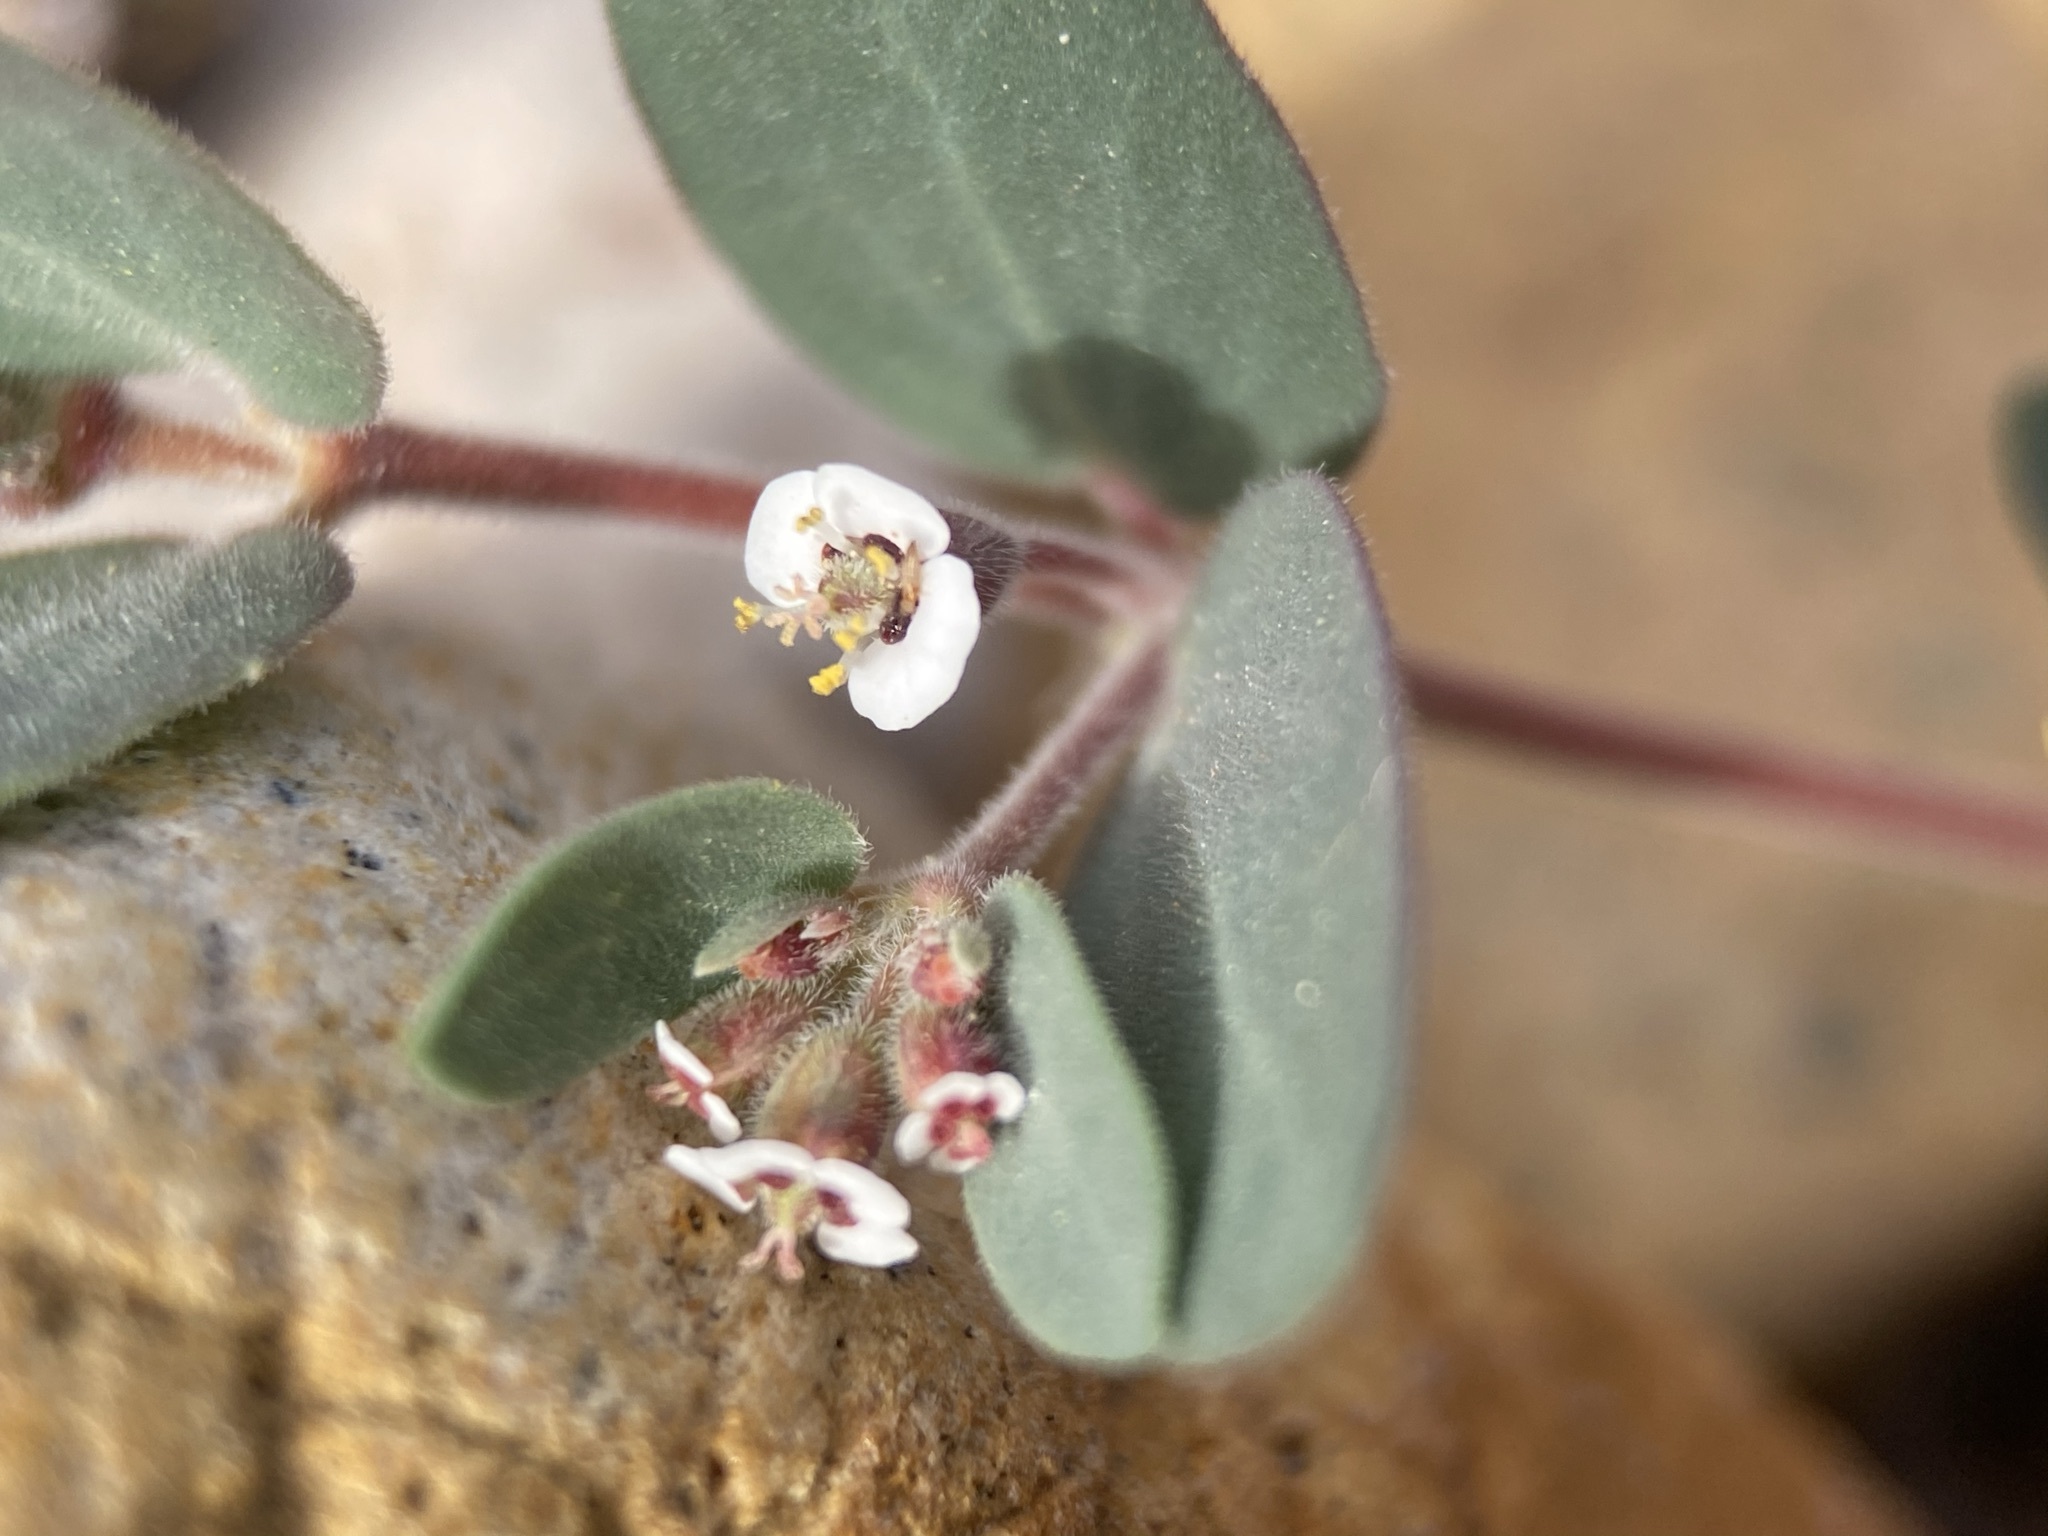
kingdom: Plantae
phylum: Tracheophyta
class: Magnoliopsida
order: Malpighiales
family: Euphorbiaceae
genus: Euphorbia
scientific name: Euphorbia capitellata
